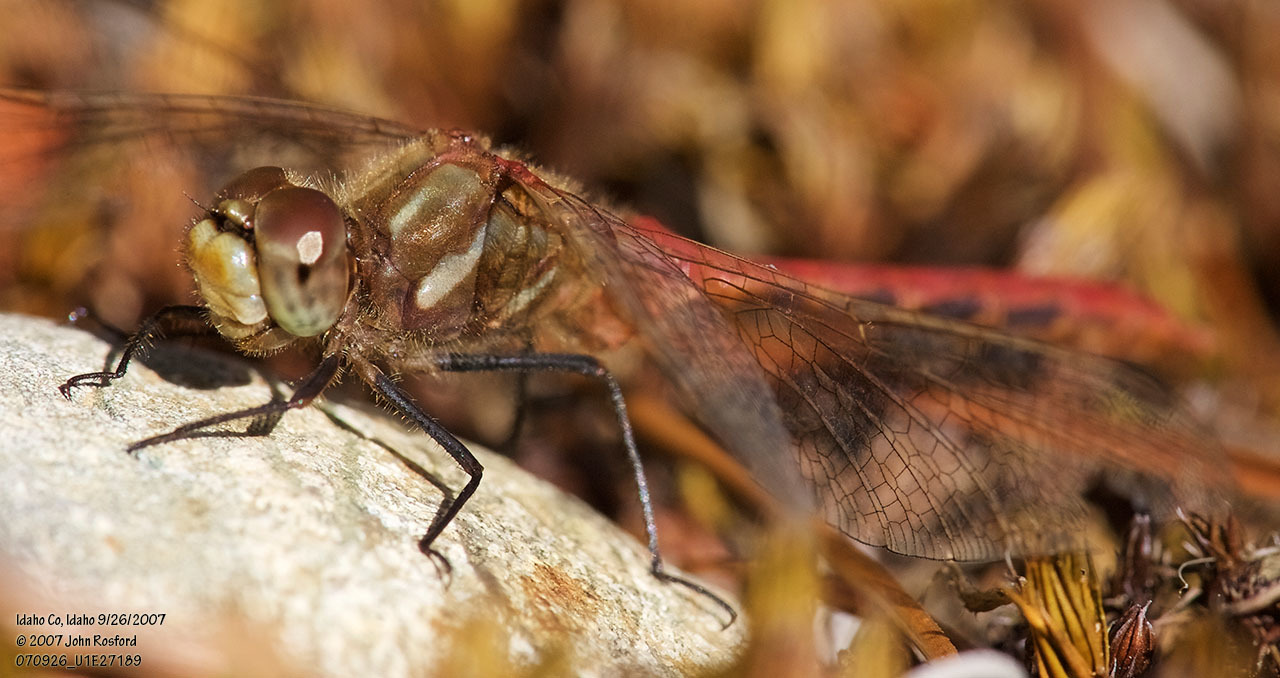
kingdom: Animalia
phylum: Arthropoda
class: Insecta
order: Odonata
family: Libellulidae
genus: Sympetrum
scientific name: Sympetrum pallipes
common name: Striped meadowhawk
